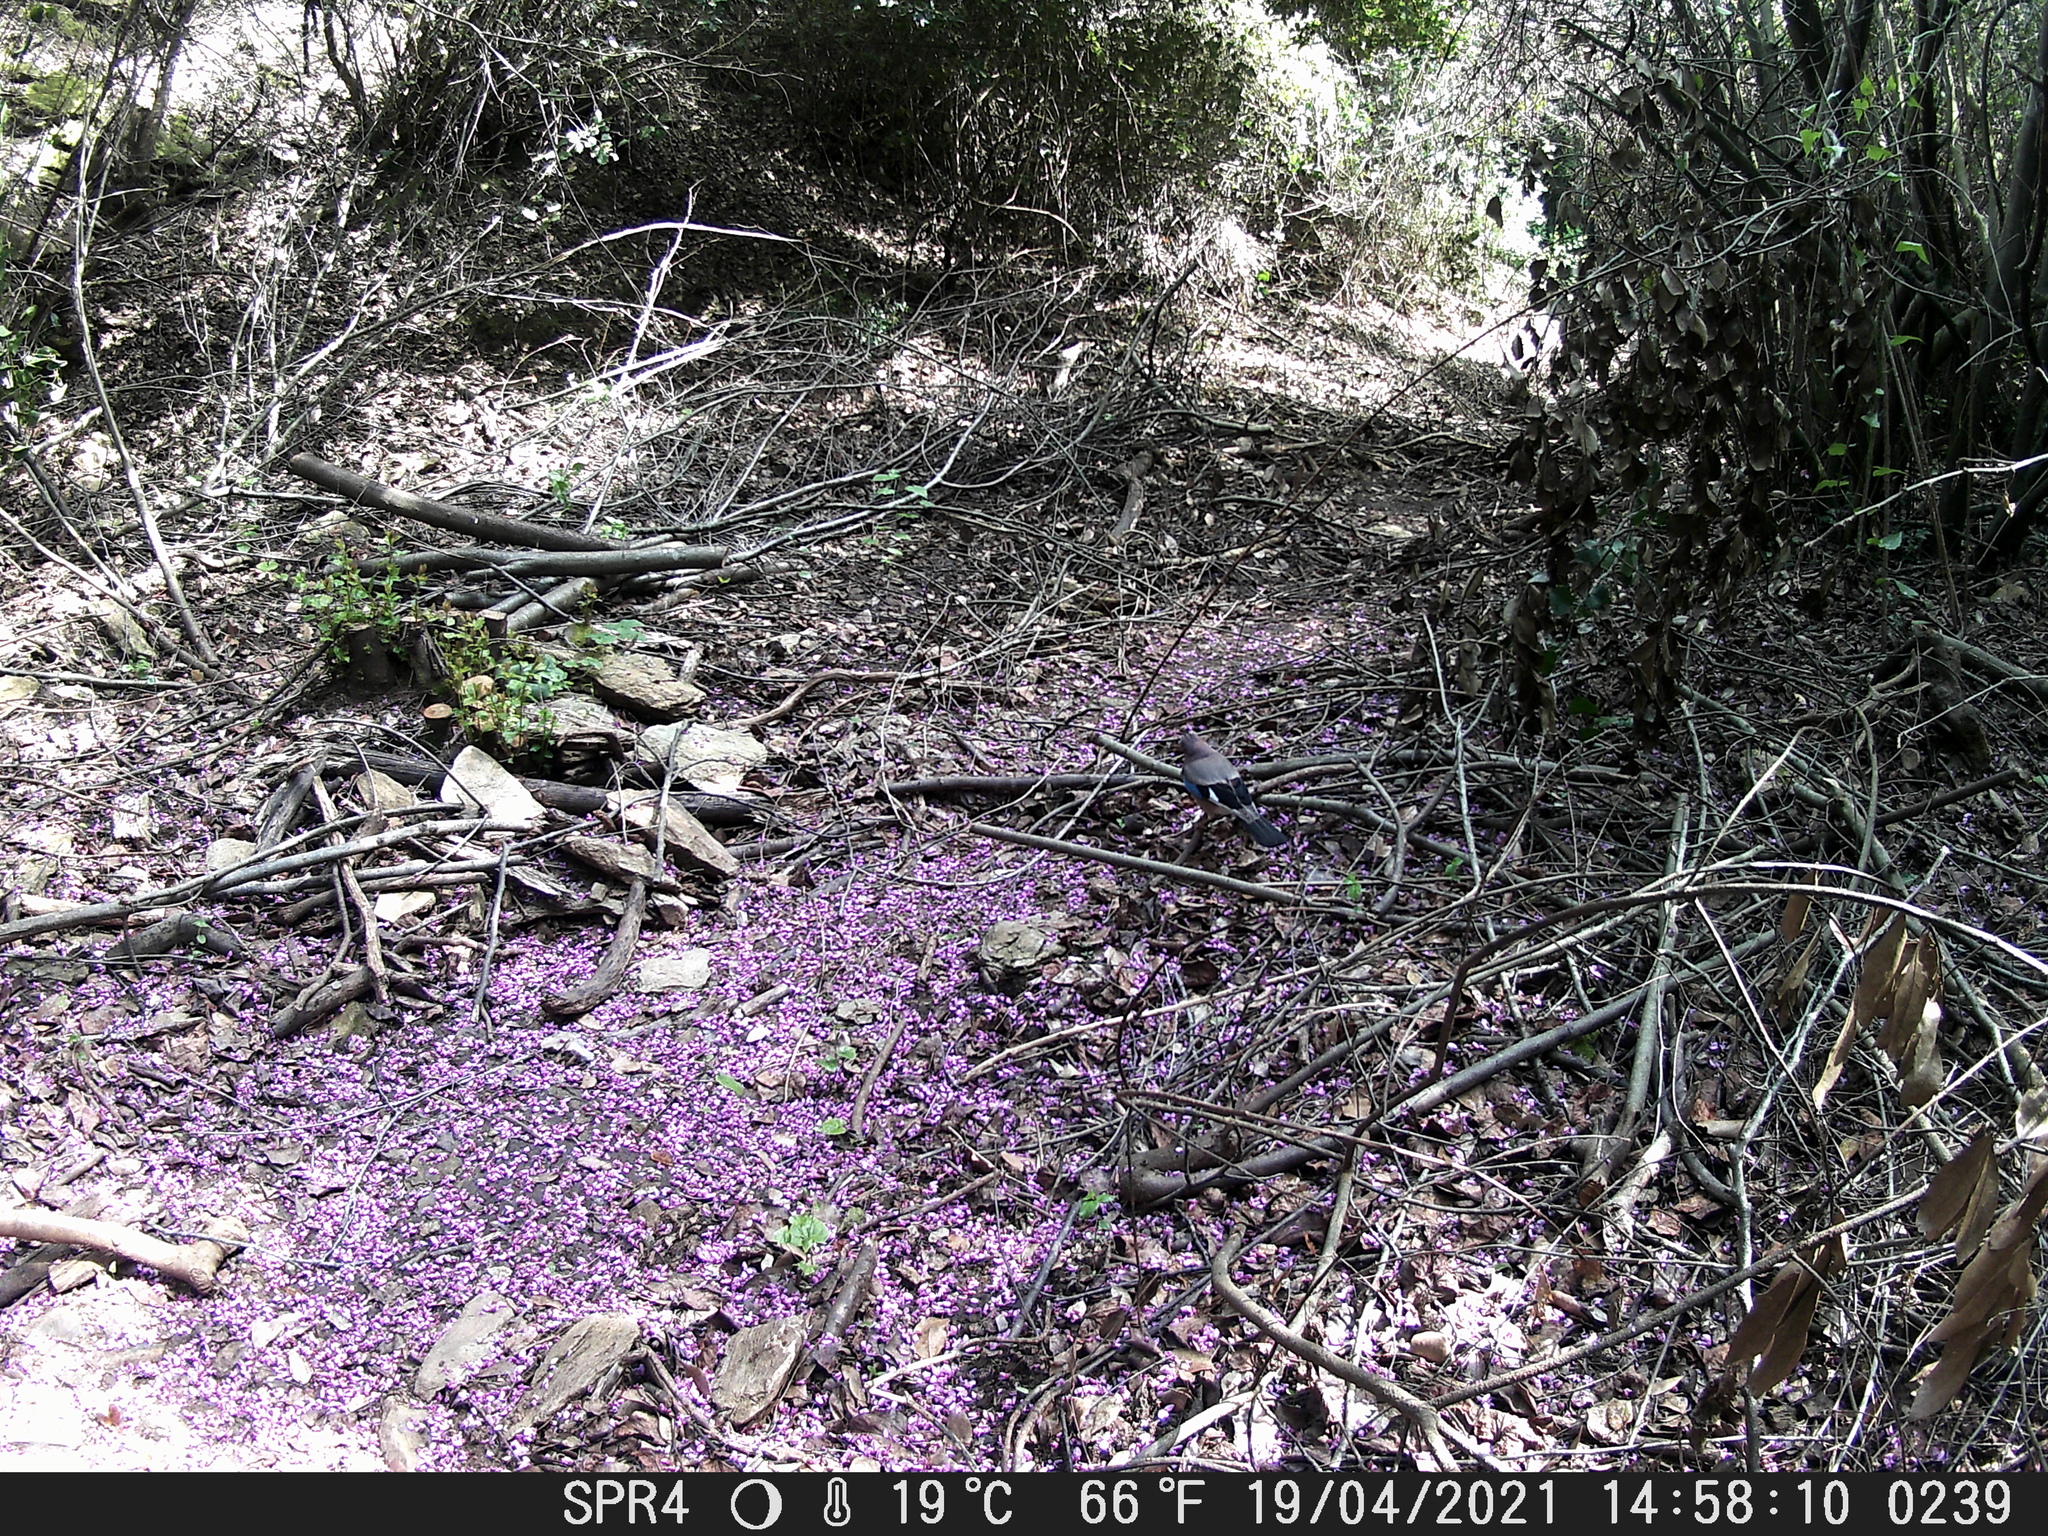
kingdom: Animalia
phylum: Chordata
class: Aves
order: Passeriformes
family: Corvidae
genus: Garrulus
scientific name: Garrulus glandarius
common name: Eurasian jay
